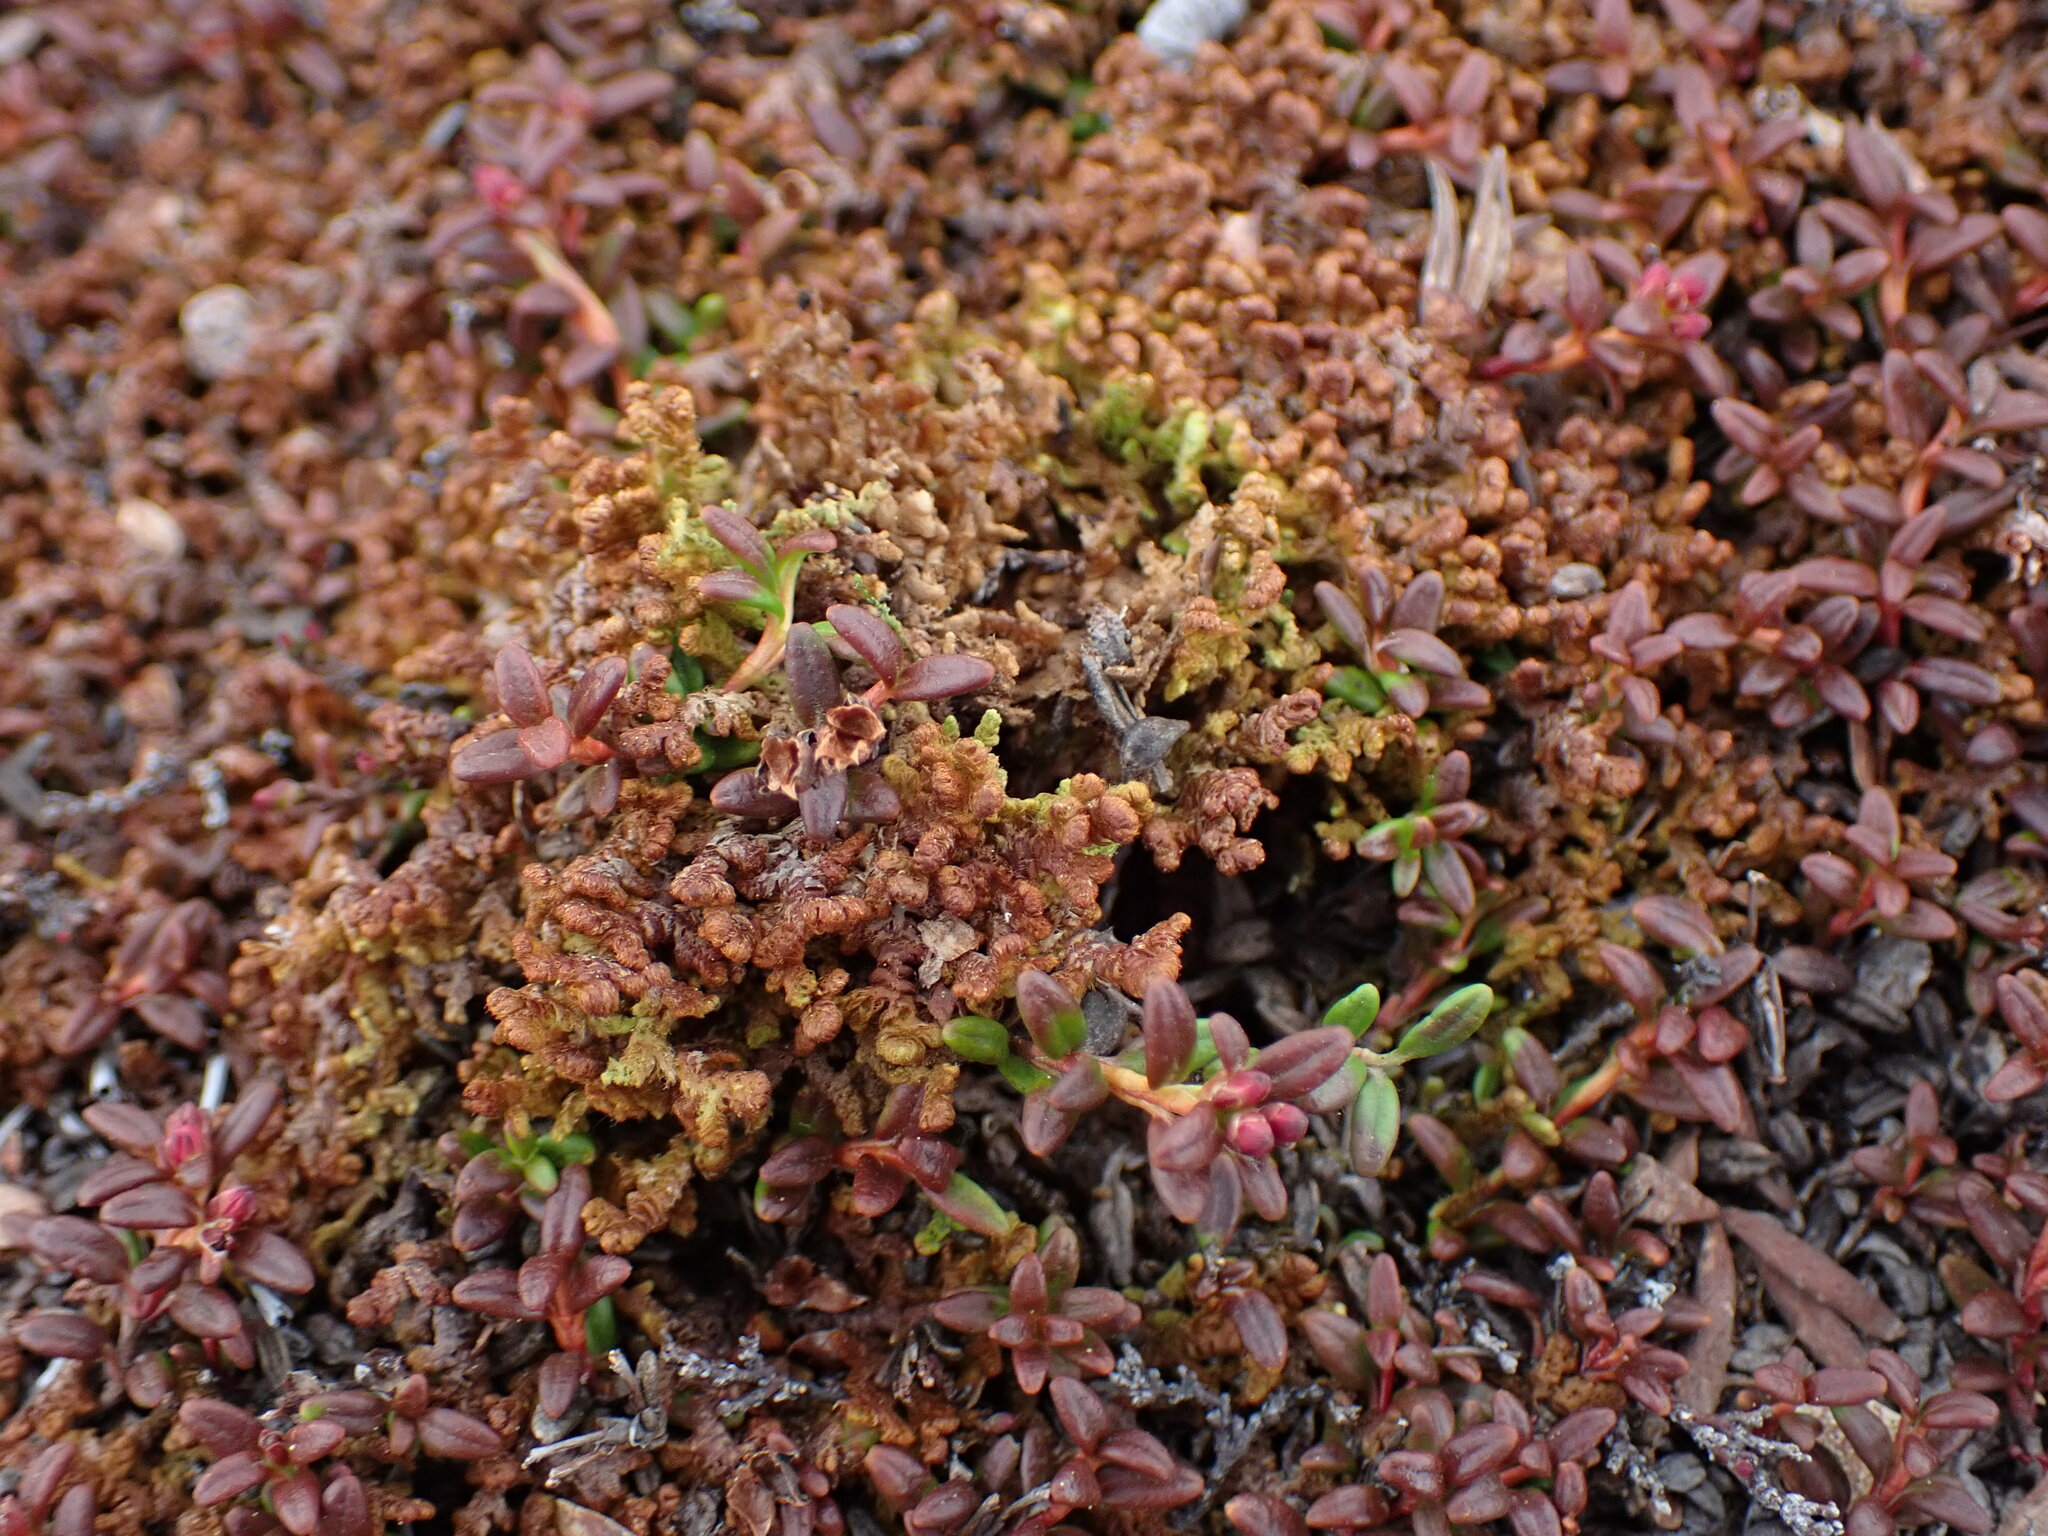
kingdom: Plantae
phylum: Marchantiophyta
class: Jungermanniopsida
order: Ptilidiales
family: Ptilidiaceae
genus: Ptilidium
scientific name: Ptilidium ciliare
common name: Ciliate fringewort
